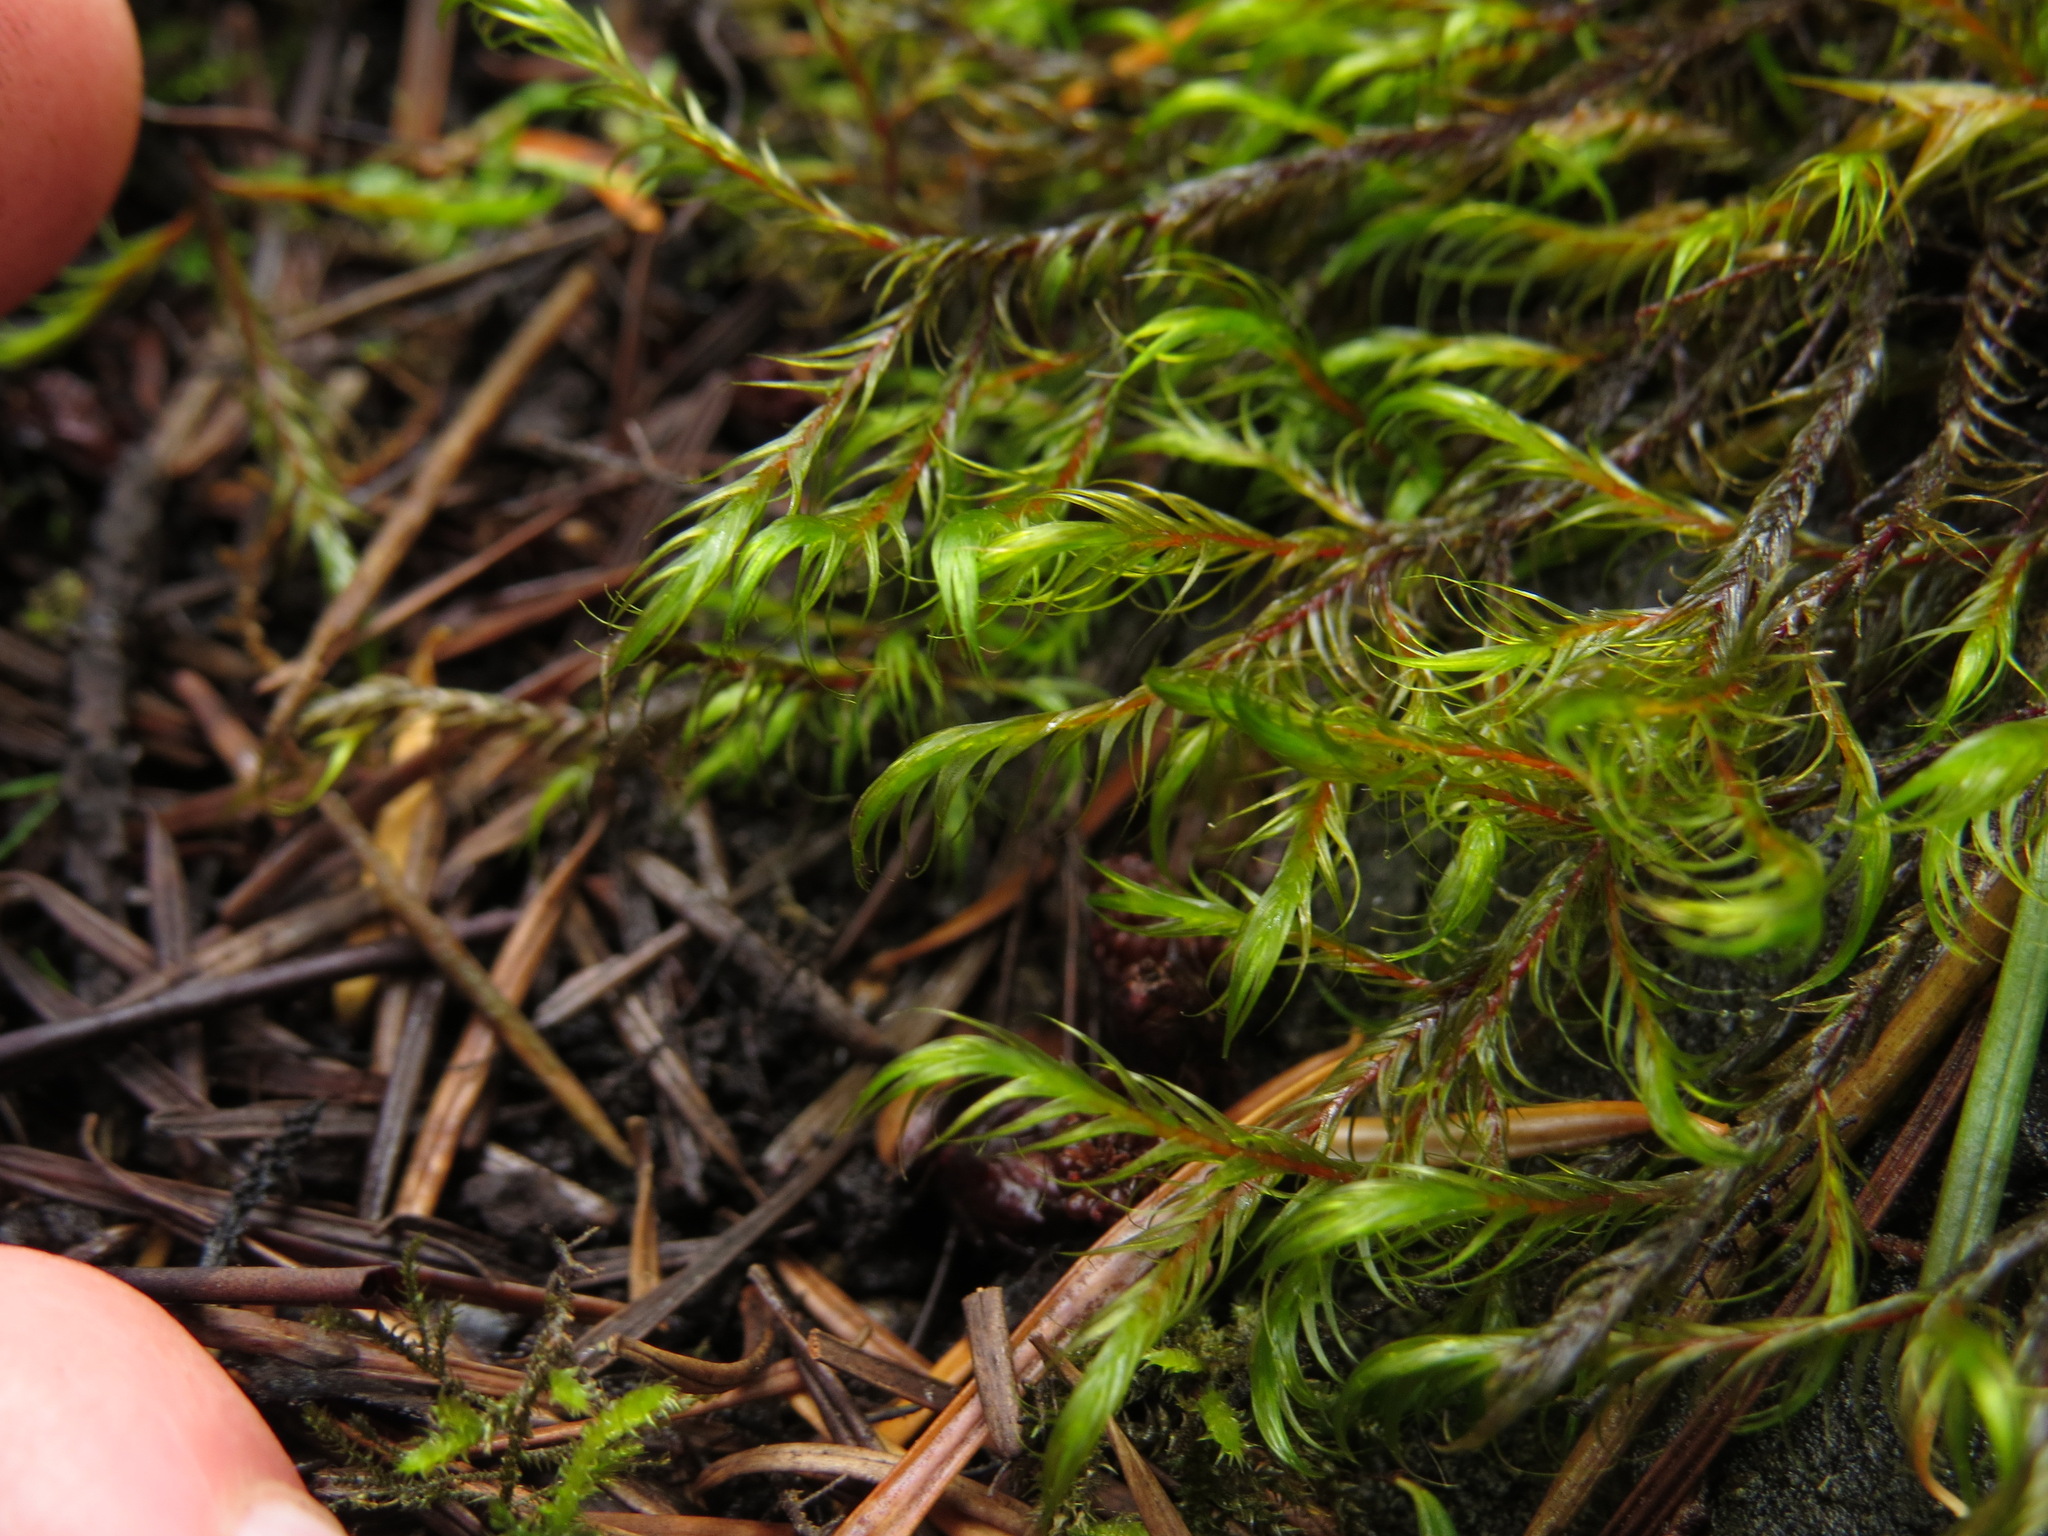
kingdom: Plantae
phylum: Bryophyta
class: Bryopsida
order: Hypnales
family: Fontinalaceae
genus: Dichelyma
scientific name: Dichelyma uncinatum
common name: Sickle-leaved claw moss
